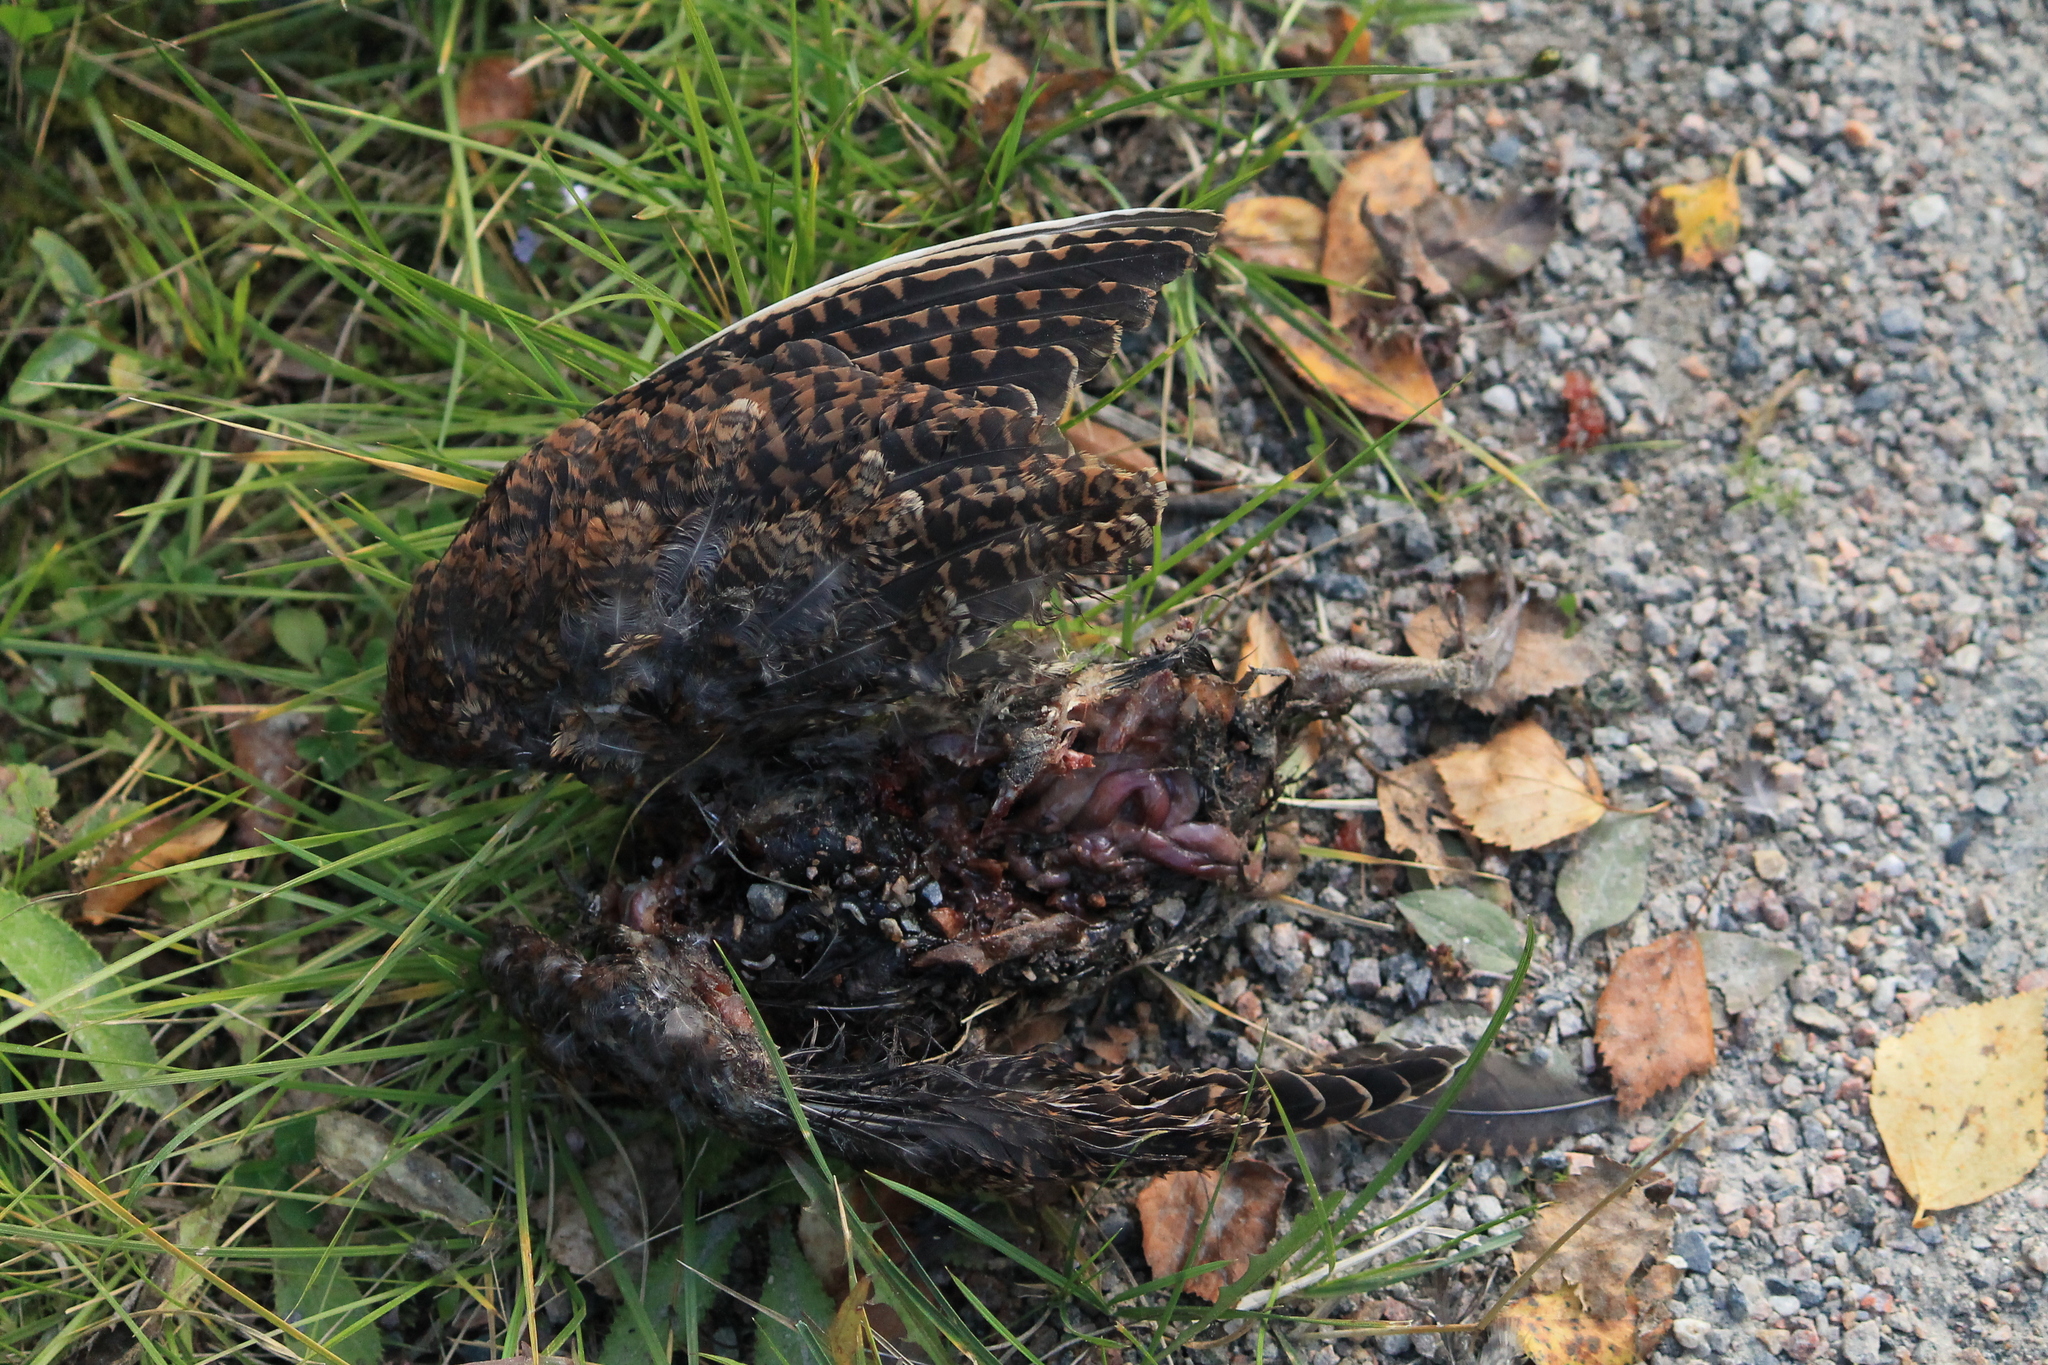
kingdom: Animalia
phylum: Chordata
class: Aves
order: Charadriiformes
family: Scolopacidae
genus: Scolopax
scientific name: Scolopax rusticola
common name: Eurasian woodcock
